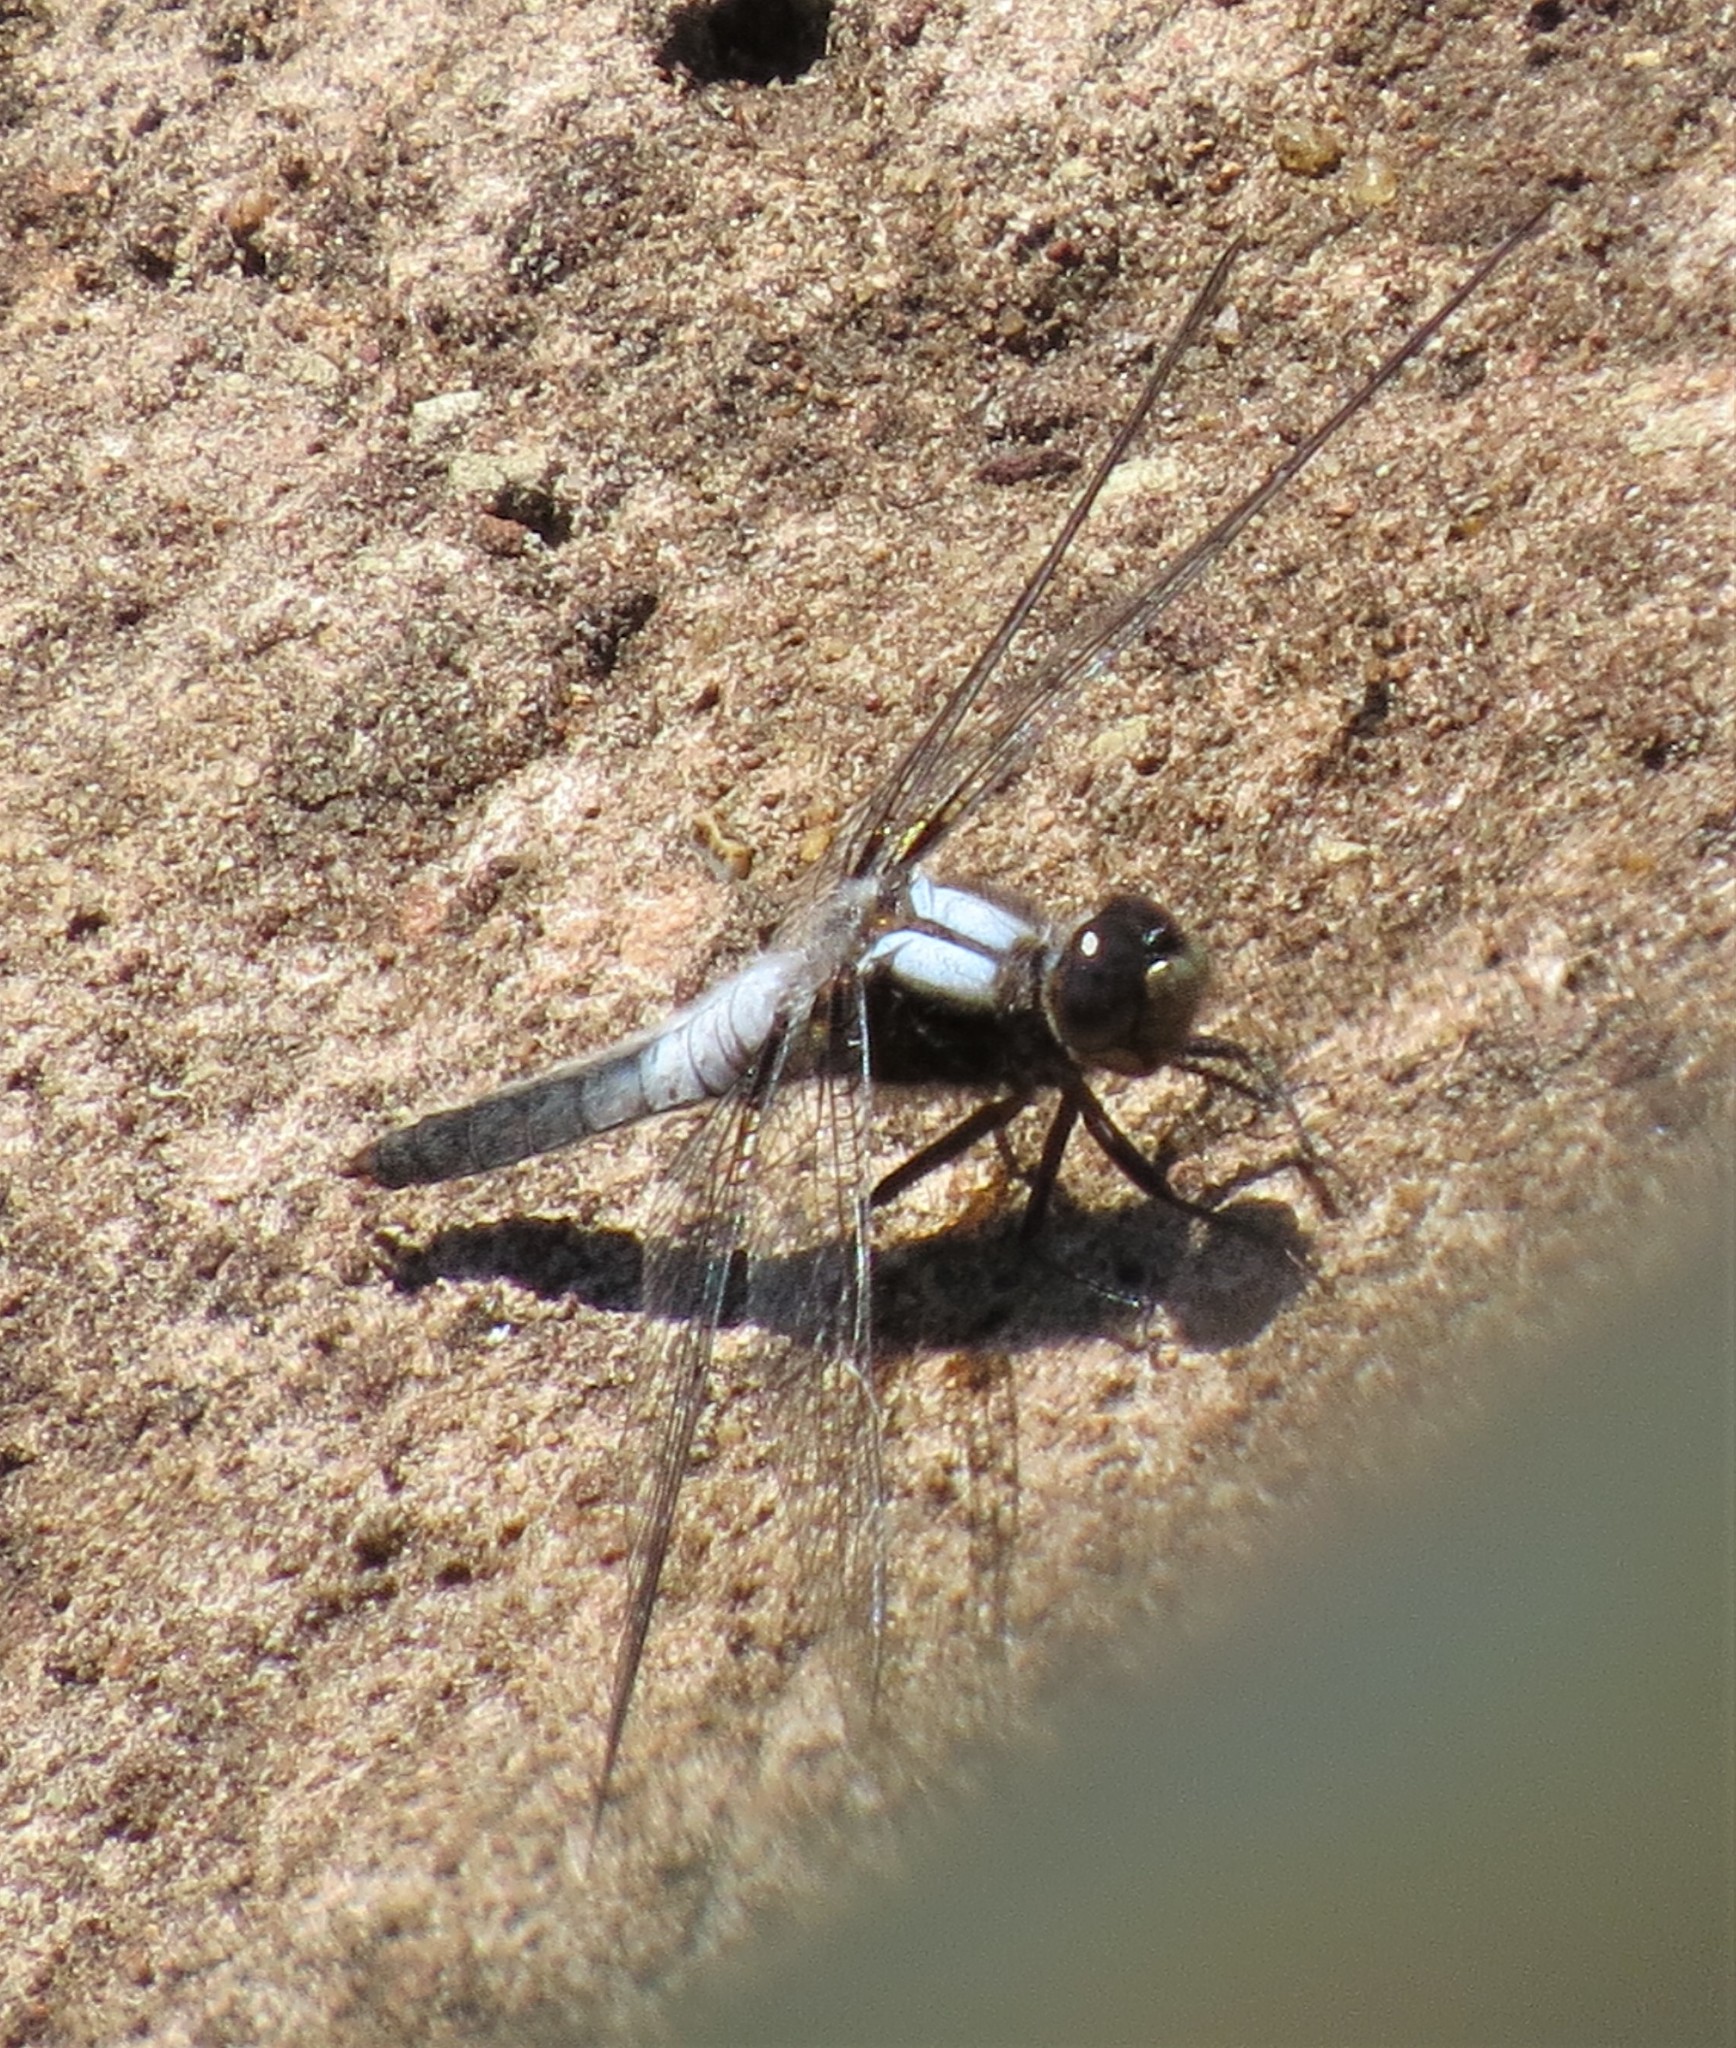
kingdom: Animalia
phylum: Arthropoda
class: Insecta
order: Odonata
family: Libellulidae
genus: Ladona
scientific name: Ladona julia
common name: Chalk-fronted corporal
